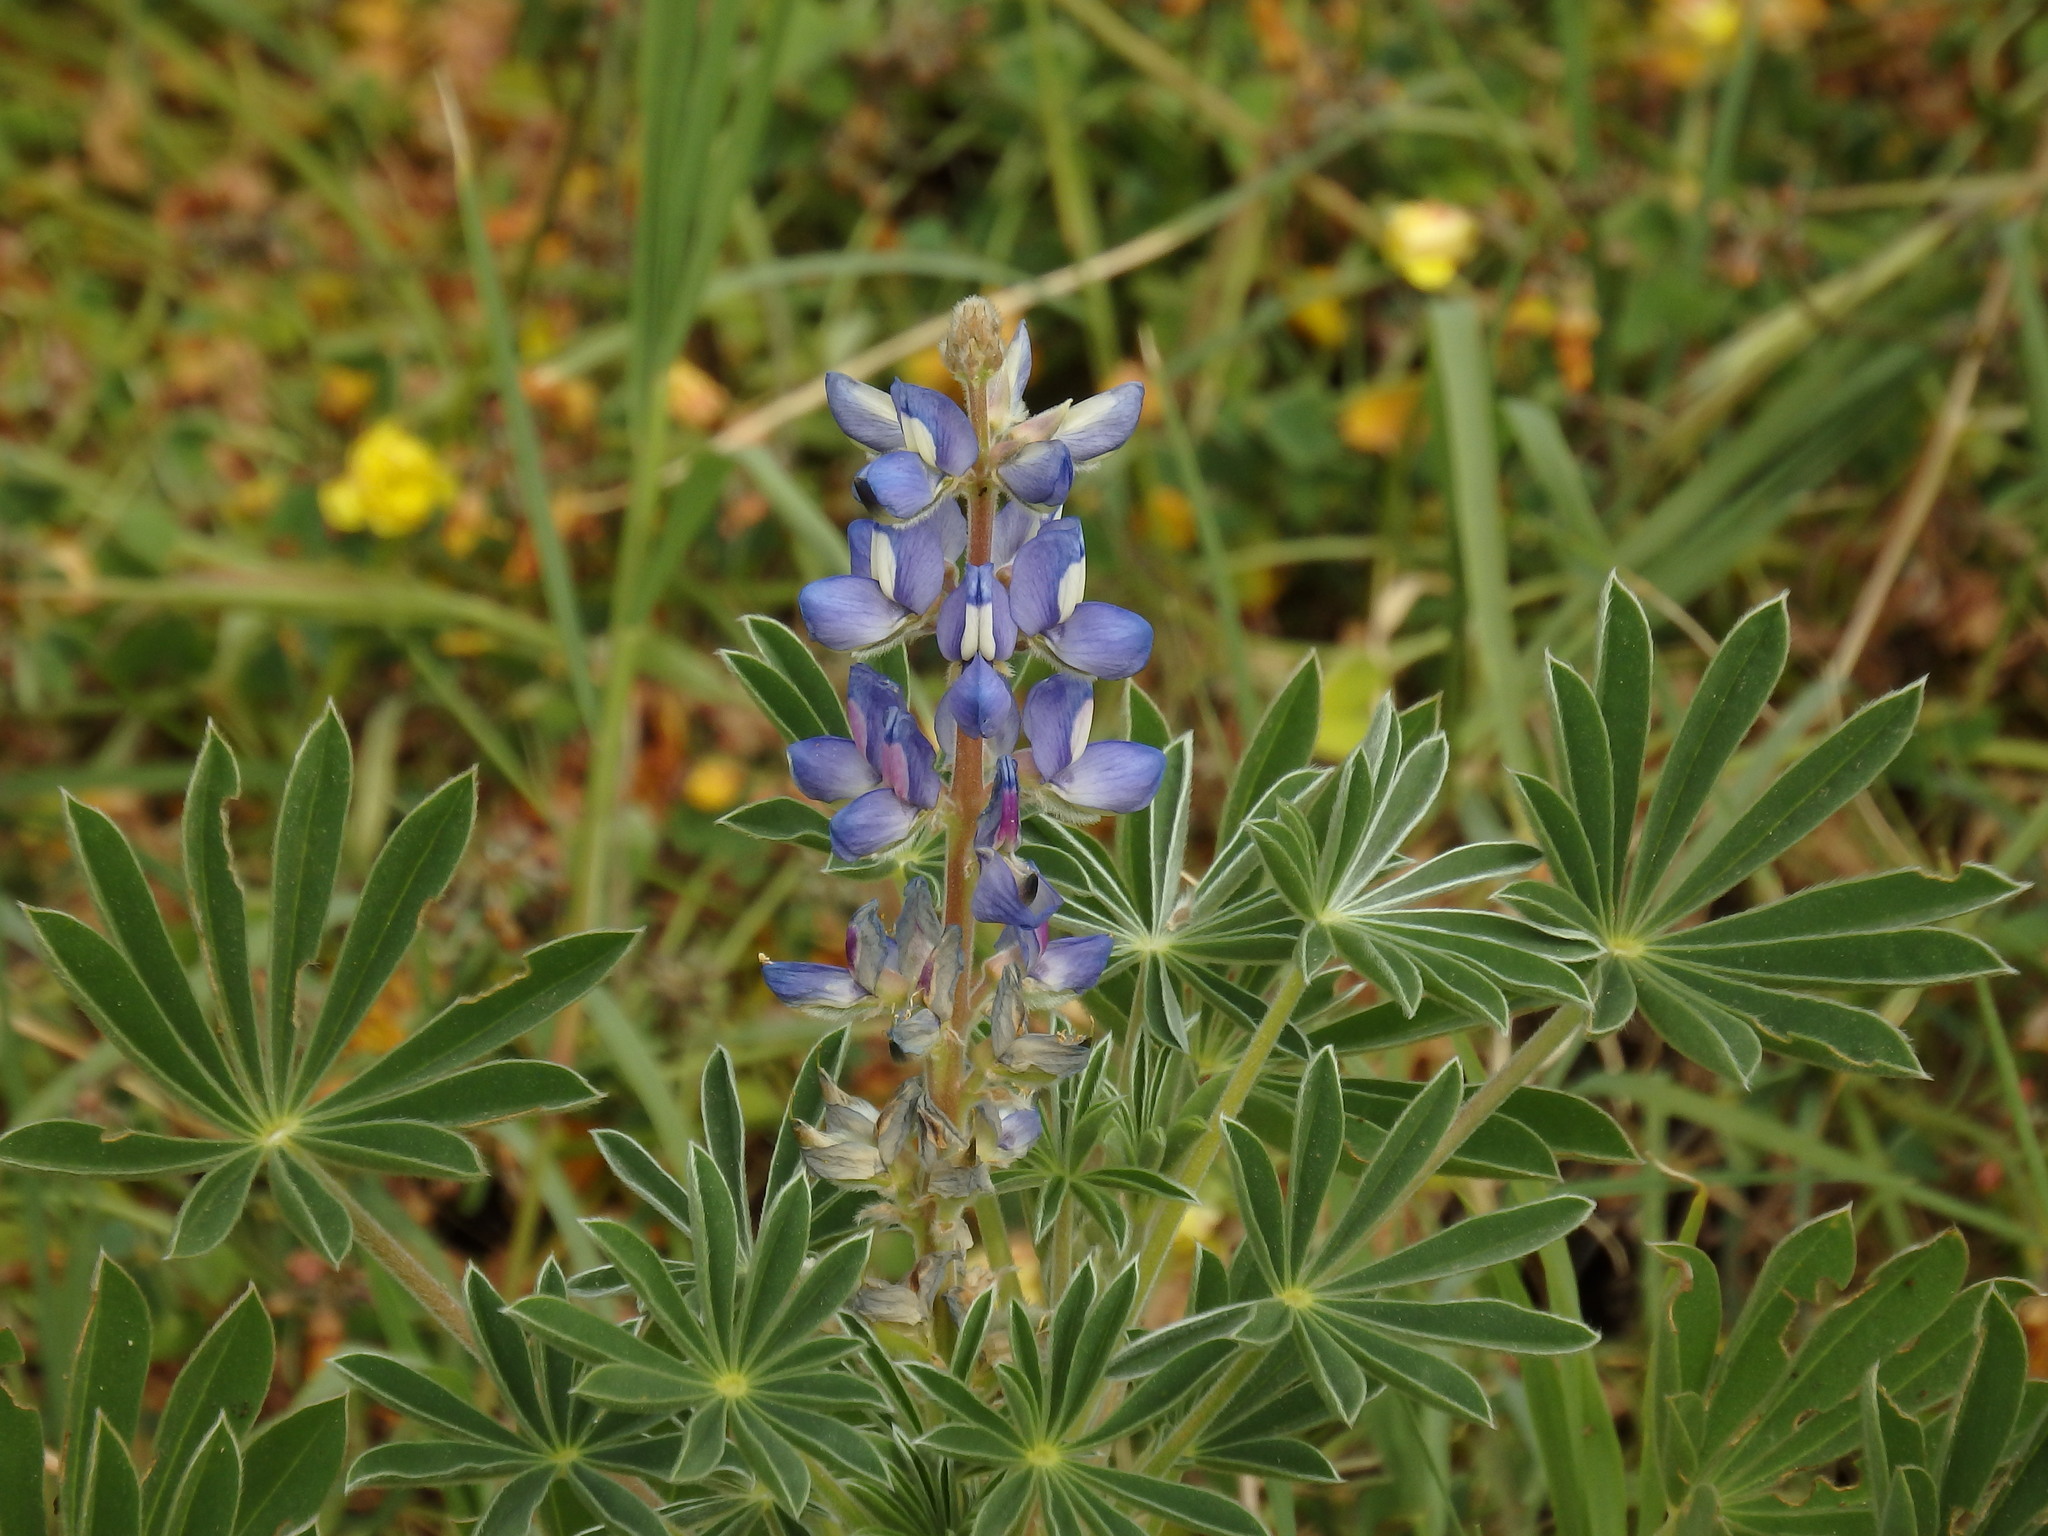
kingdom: Plantae
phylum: Tracheophyta
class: Magnoliopsida
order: Fabales
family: Fabaceae
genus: Lupinus
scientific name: Lupinus cosentinii
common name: Hairy blue lupin
